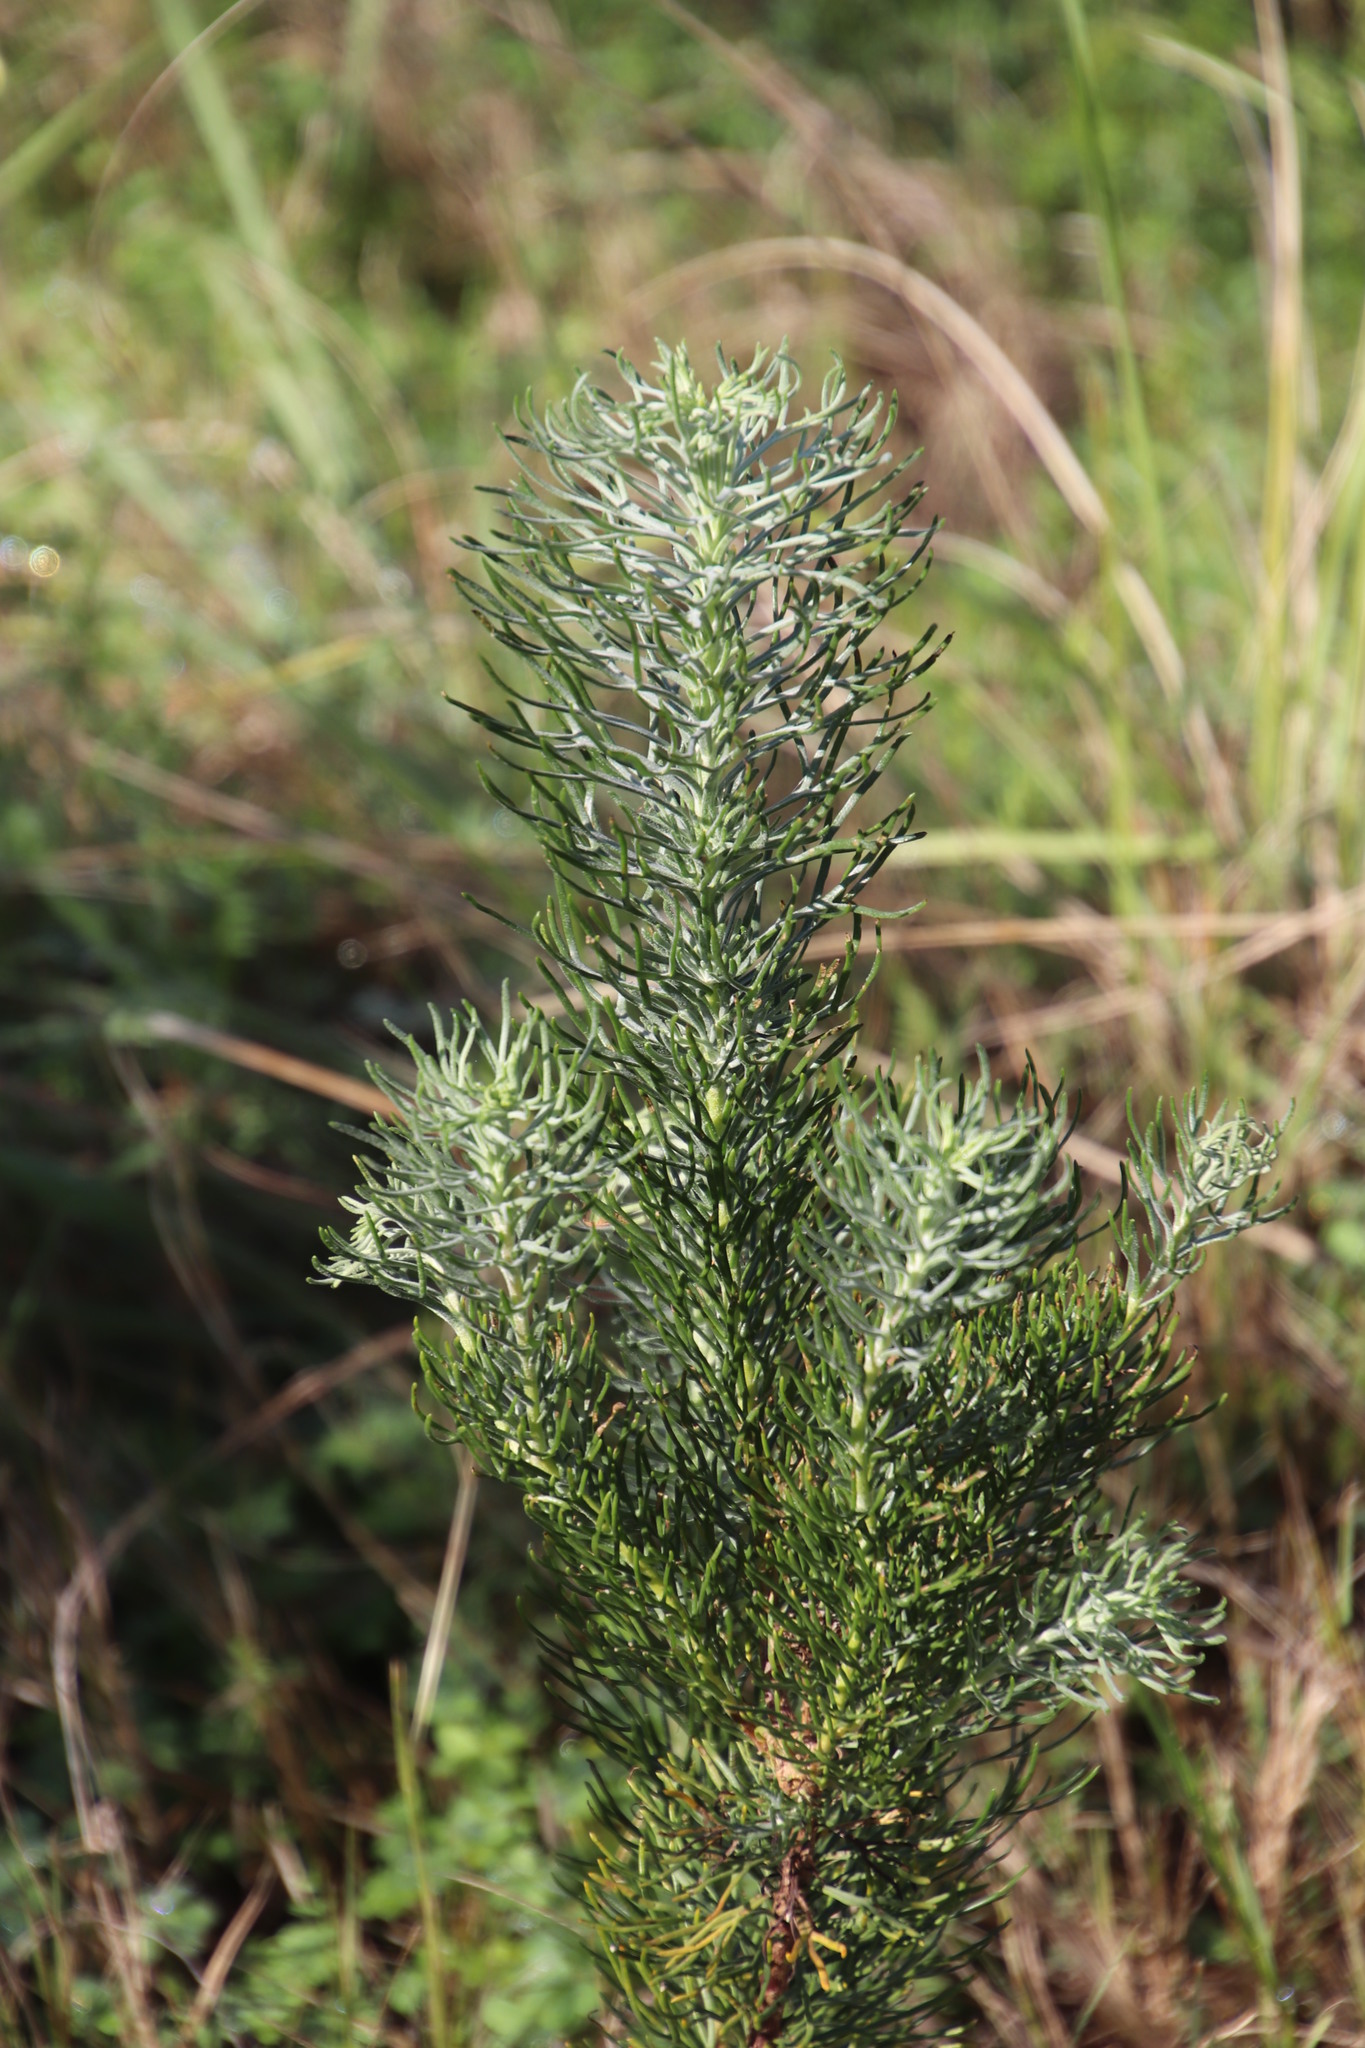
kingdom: Plantae
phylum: Tracheophyta
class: Magnoliopsida
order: Asterales
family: Asteraceae
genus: Athanasia
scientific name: Athanasia crithmifolia
